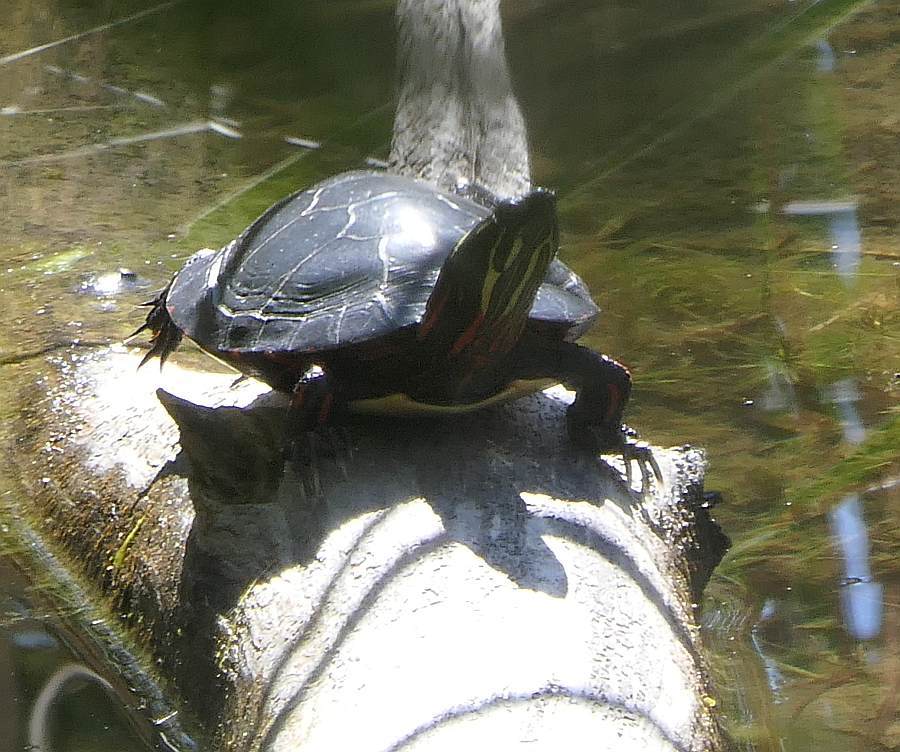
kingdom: Animalia
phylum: Chordata
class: Testudines
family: Emydidae
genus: Chrysemys
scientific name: Chrysemys picta
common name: Painted turtle
